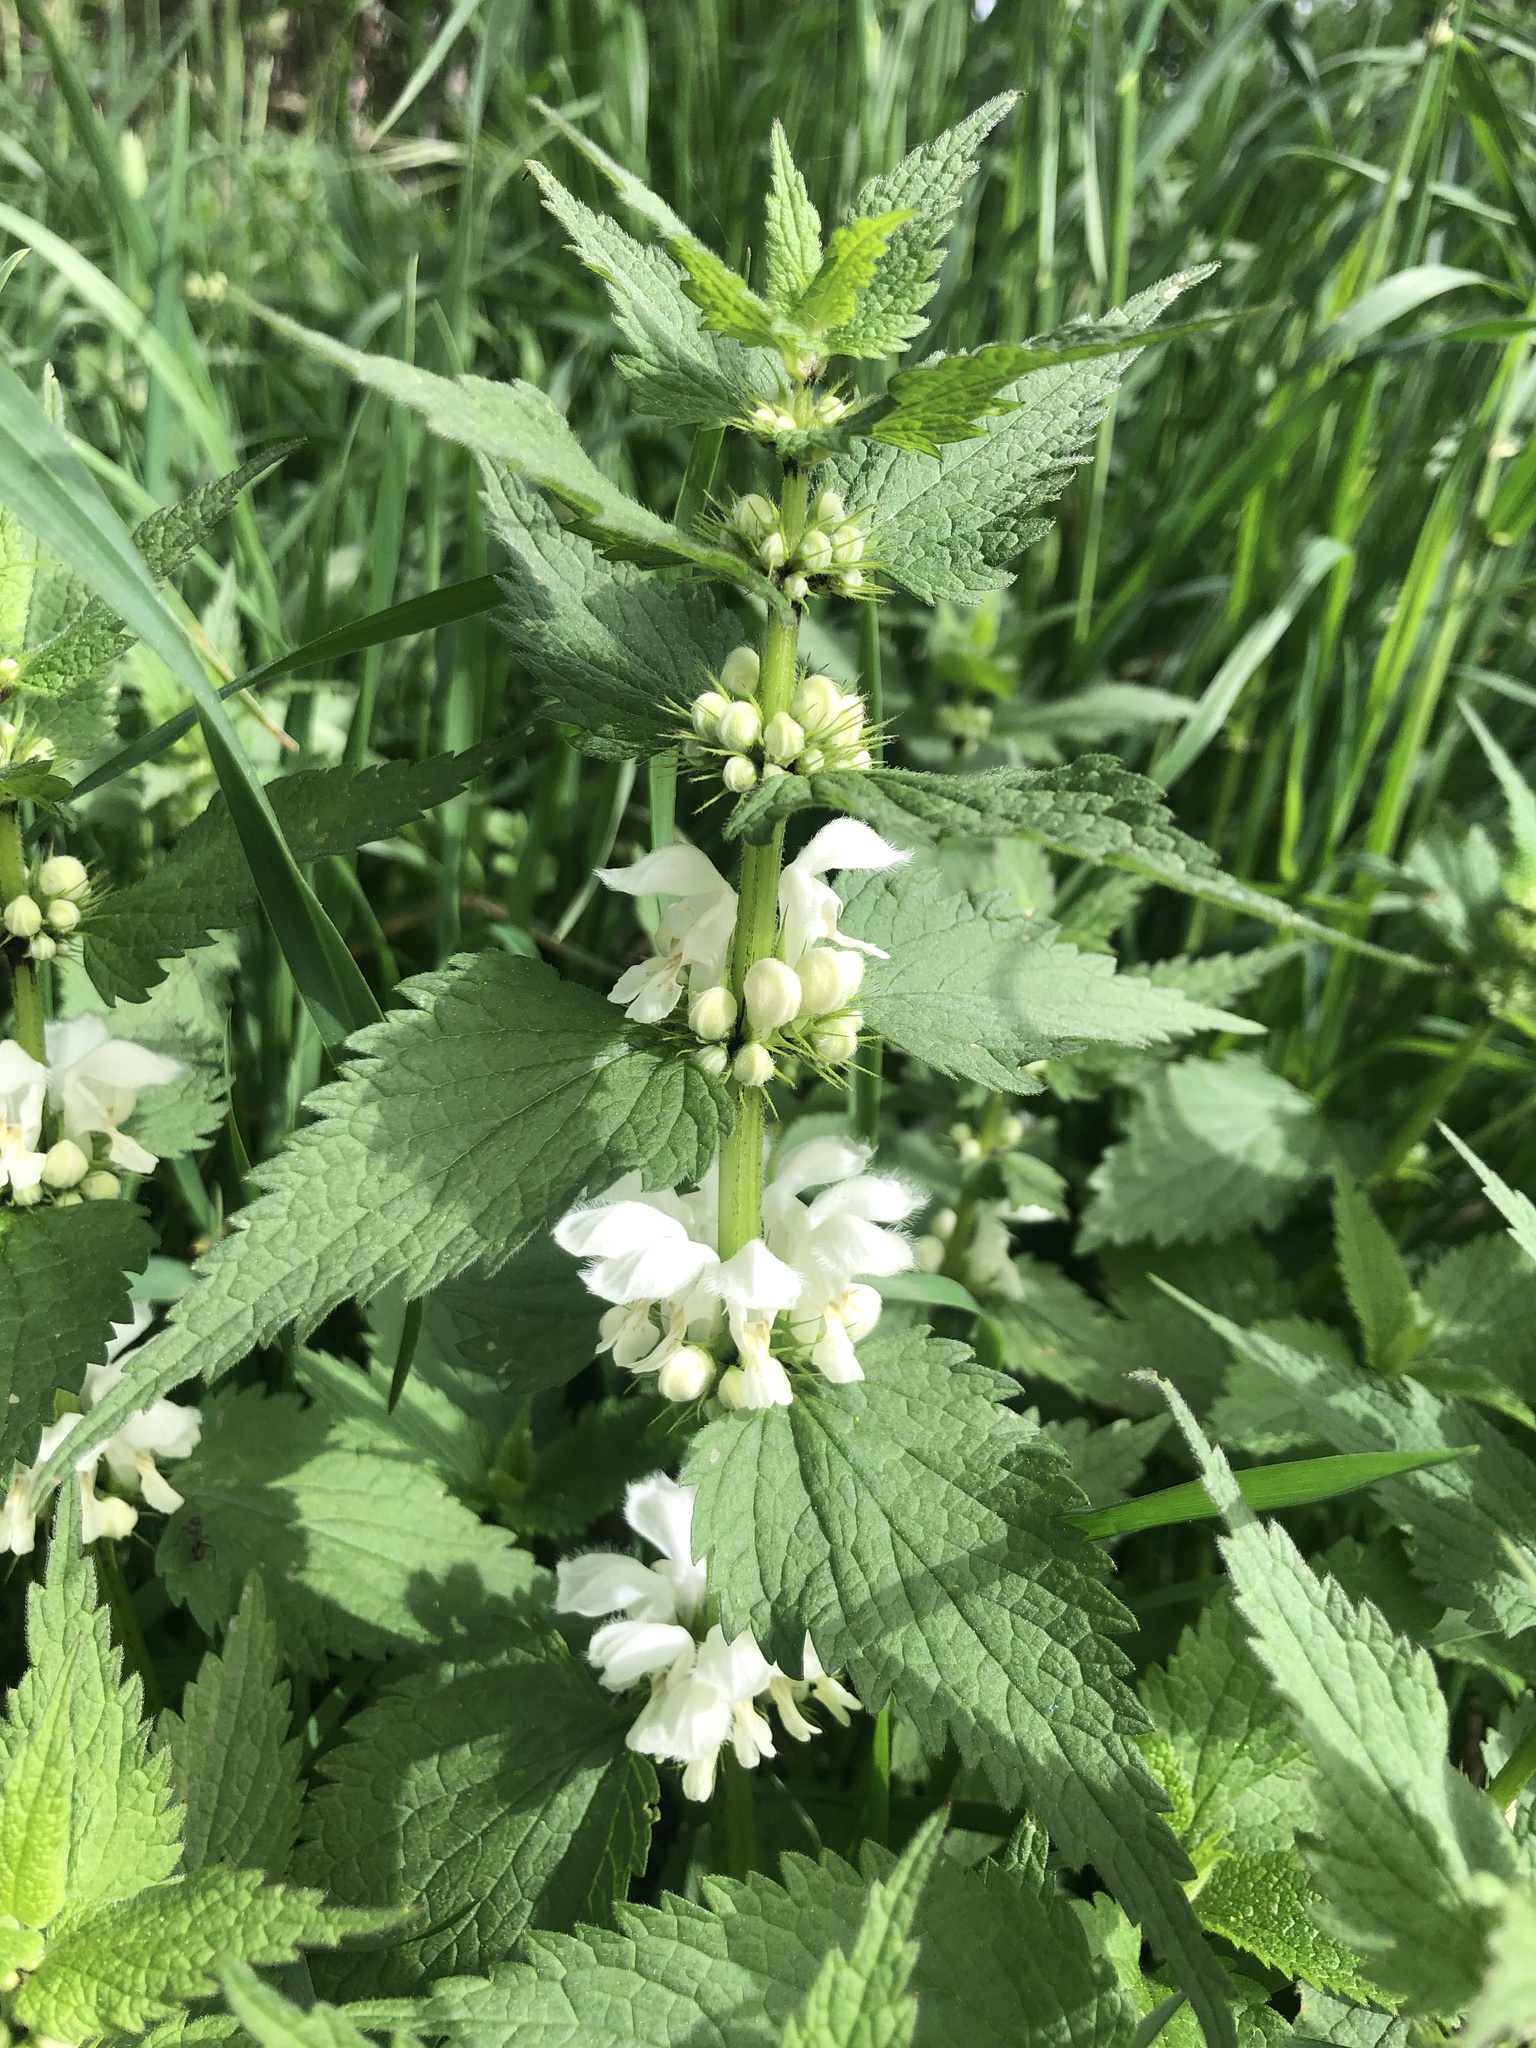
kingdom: Plantae
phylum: Tracheophyta
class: Magnoliopsida
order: Lamiales
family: Lamiaceae
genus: Lamium
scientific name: Lamium album
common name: White dead-nettle
